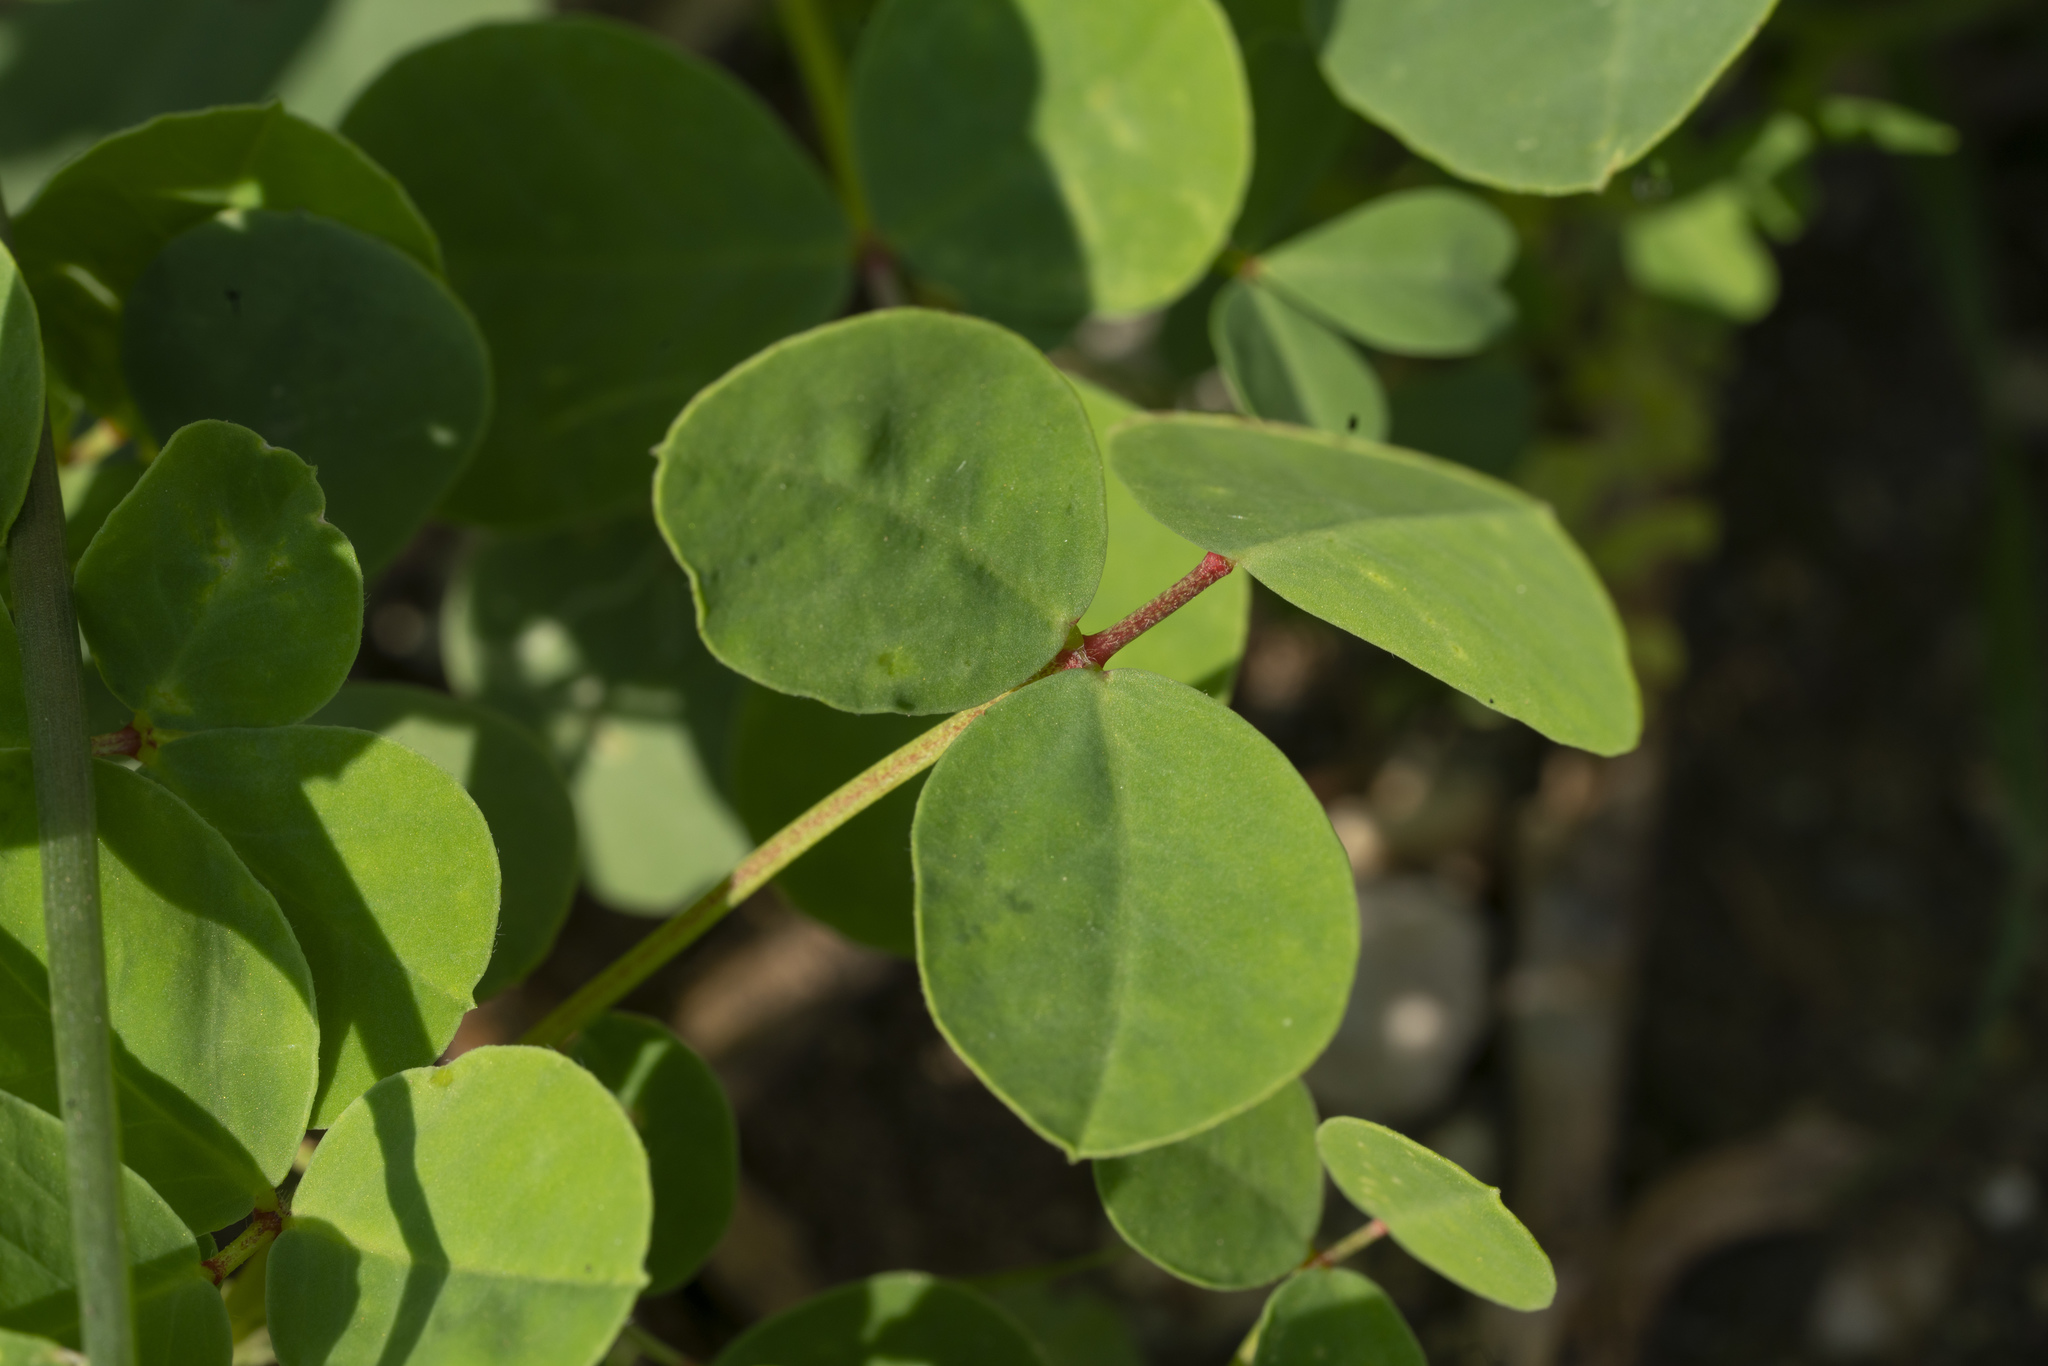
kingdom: Plantae
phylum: Tracheophyta
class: Magnoliopsida
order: Fabales
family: Fabaceae
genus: Medicago
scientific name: Medicago
